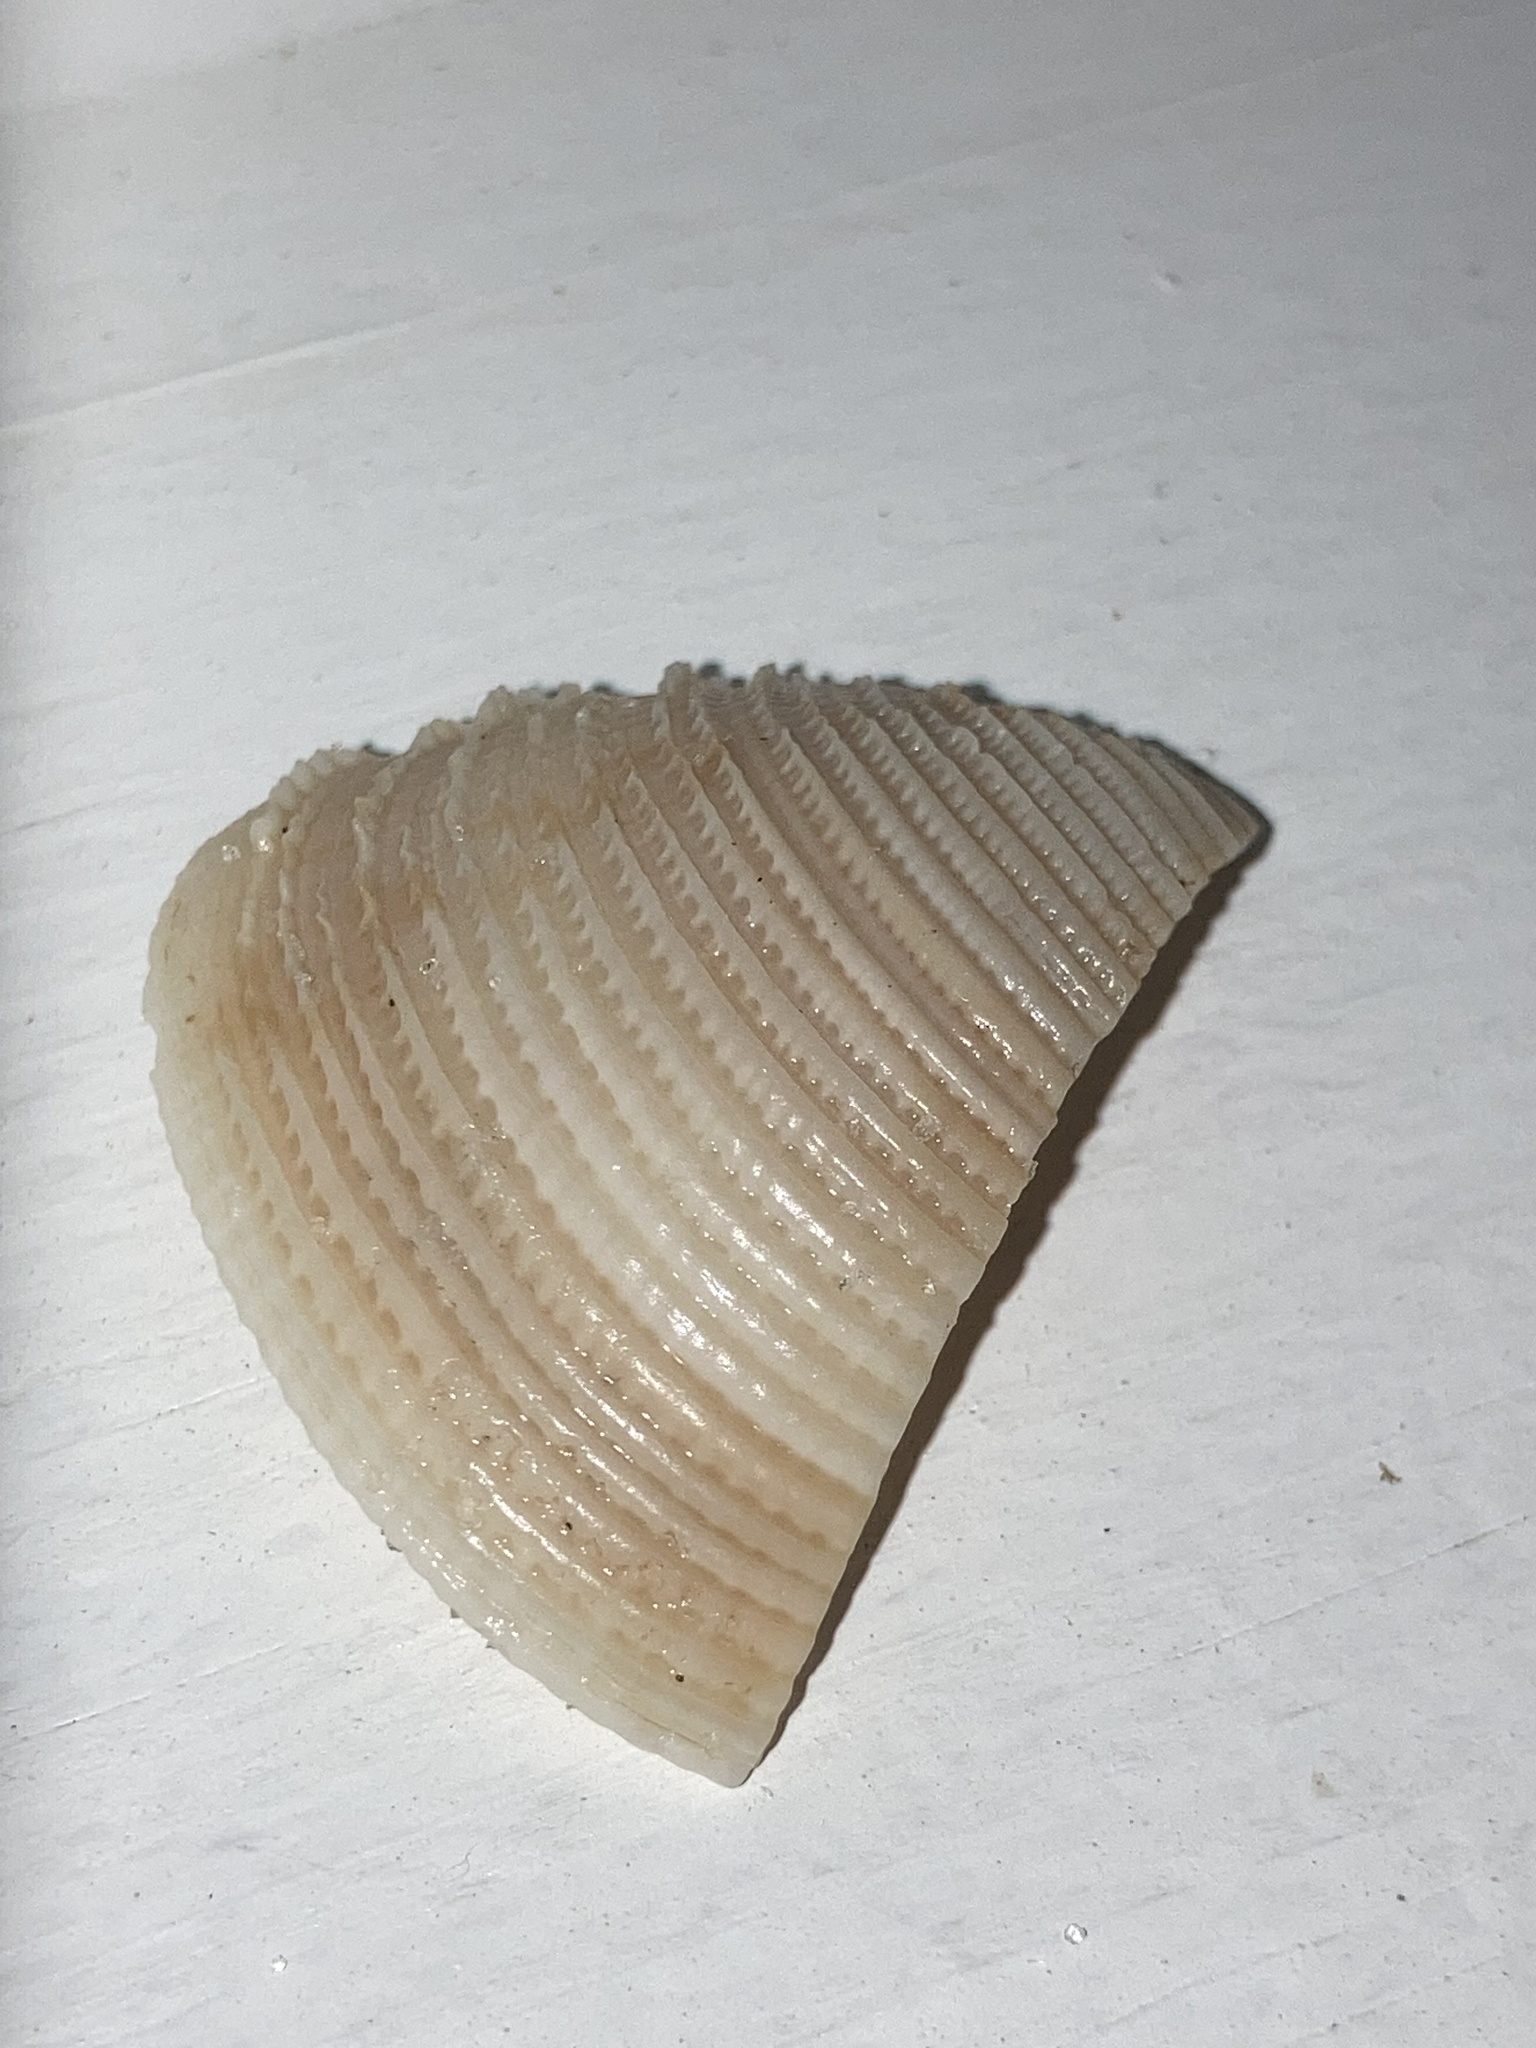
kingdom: Animalia
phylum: Mollusca
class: Bivalvia
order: Venerida
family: Veneridae
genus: Chionopsis
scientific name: Chionopsis intapurpurea
